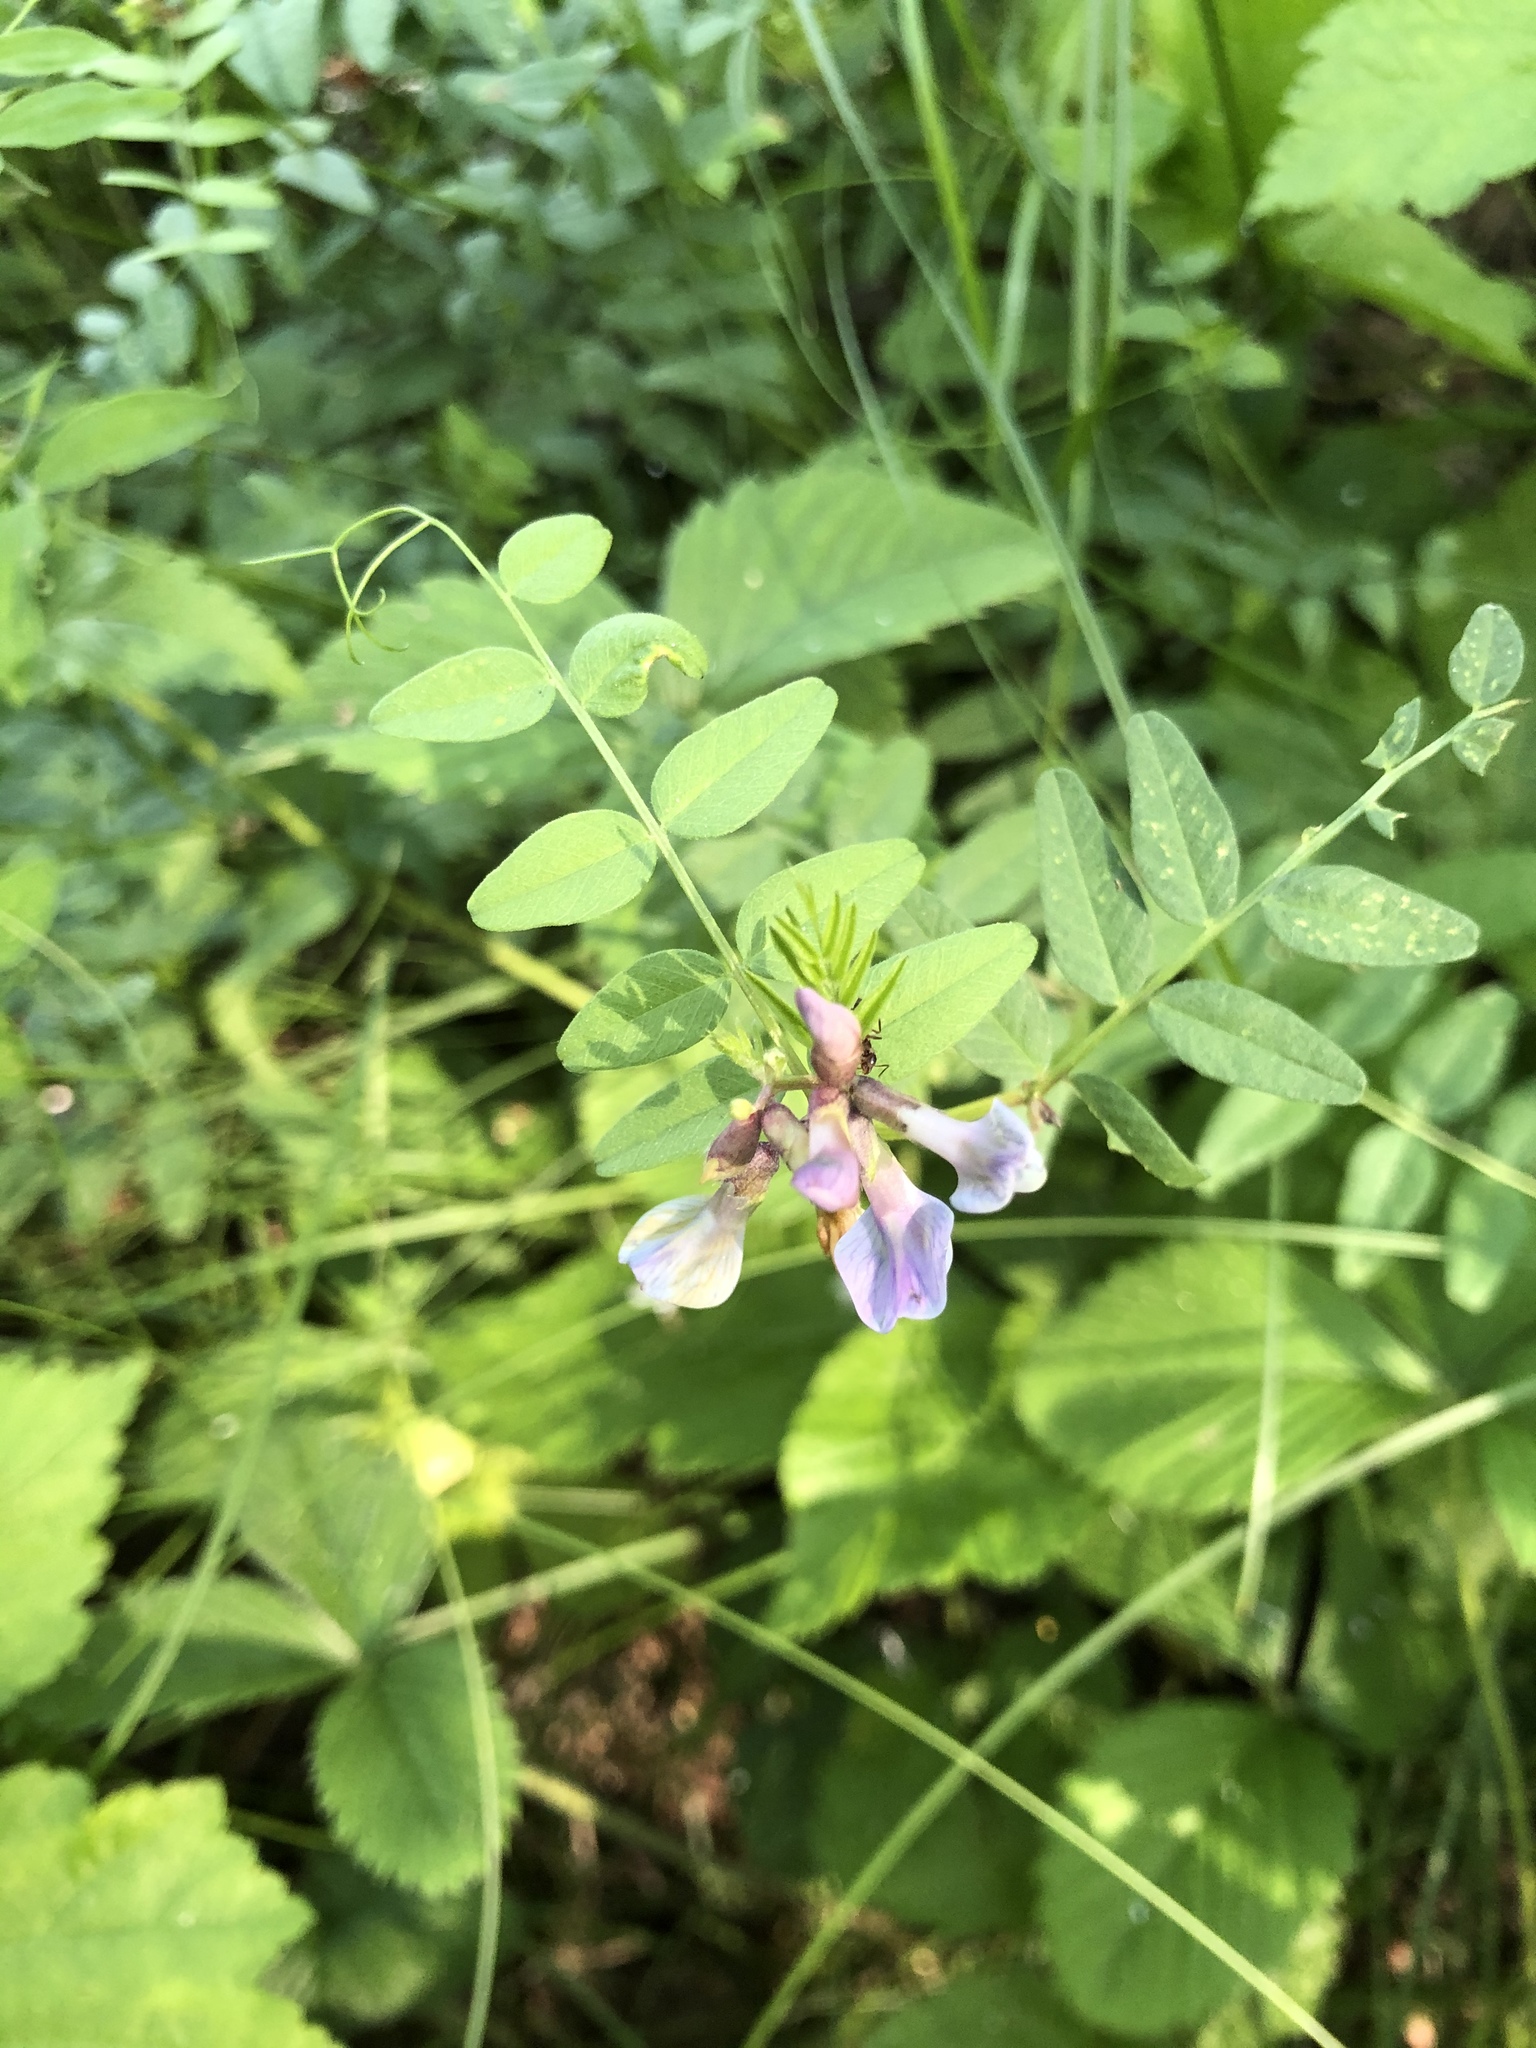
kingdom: Plantae
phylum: Tracheophyta
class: Magnoliopsida
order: Fabales
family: Fabaceae
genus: Vicia
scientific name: Vicia sepium
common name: Bush vetch
